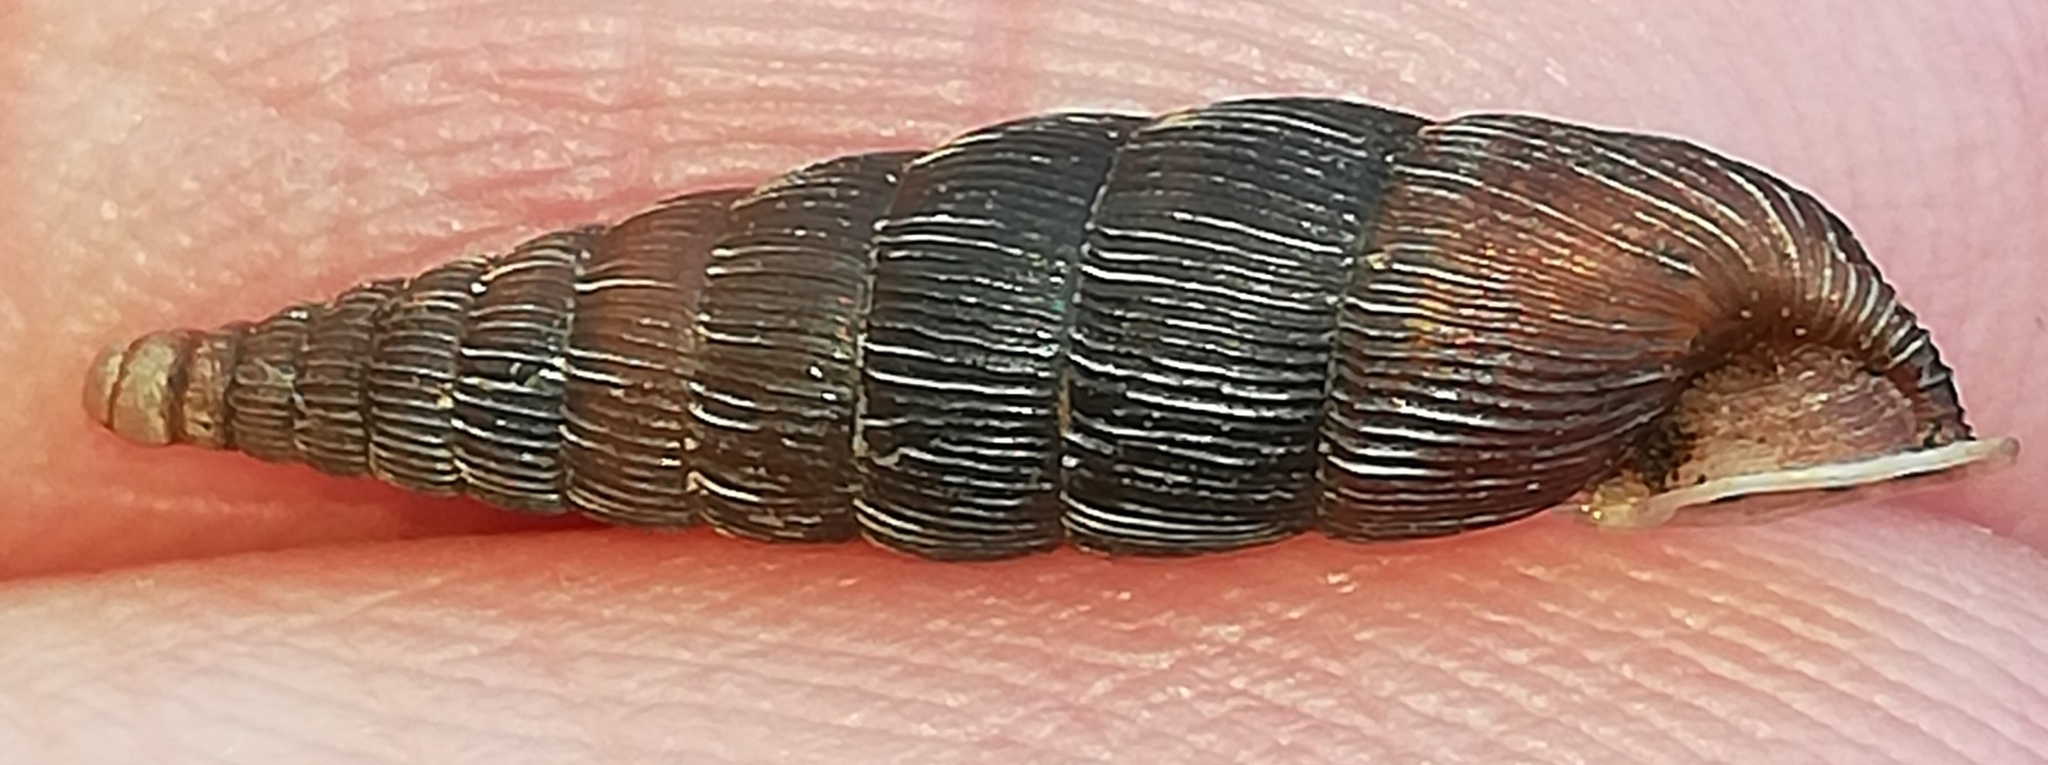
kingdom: Animalia
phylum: Mollusca
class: Gastropoda
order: Stylommatophora
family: Clausiliidae
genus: Alinda
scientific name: Alinda biplicata
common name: Thames door snail
